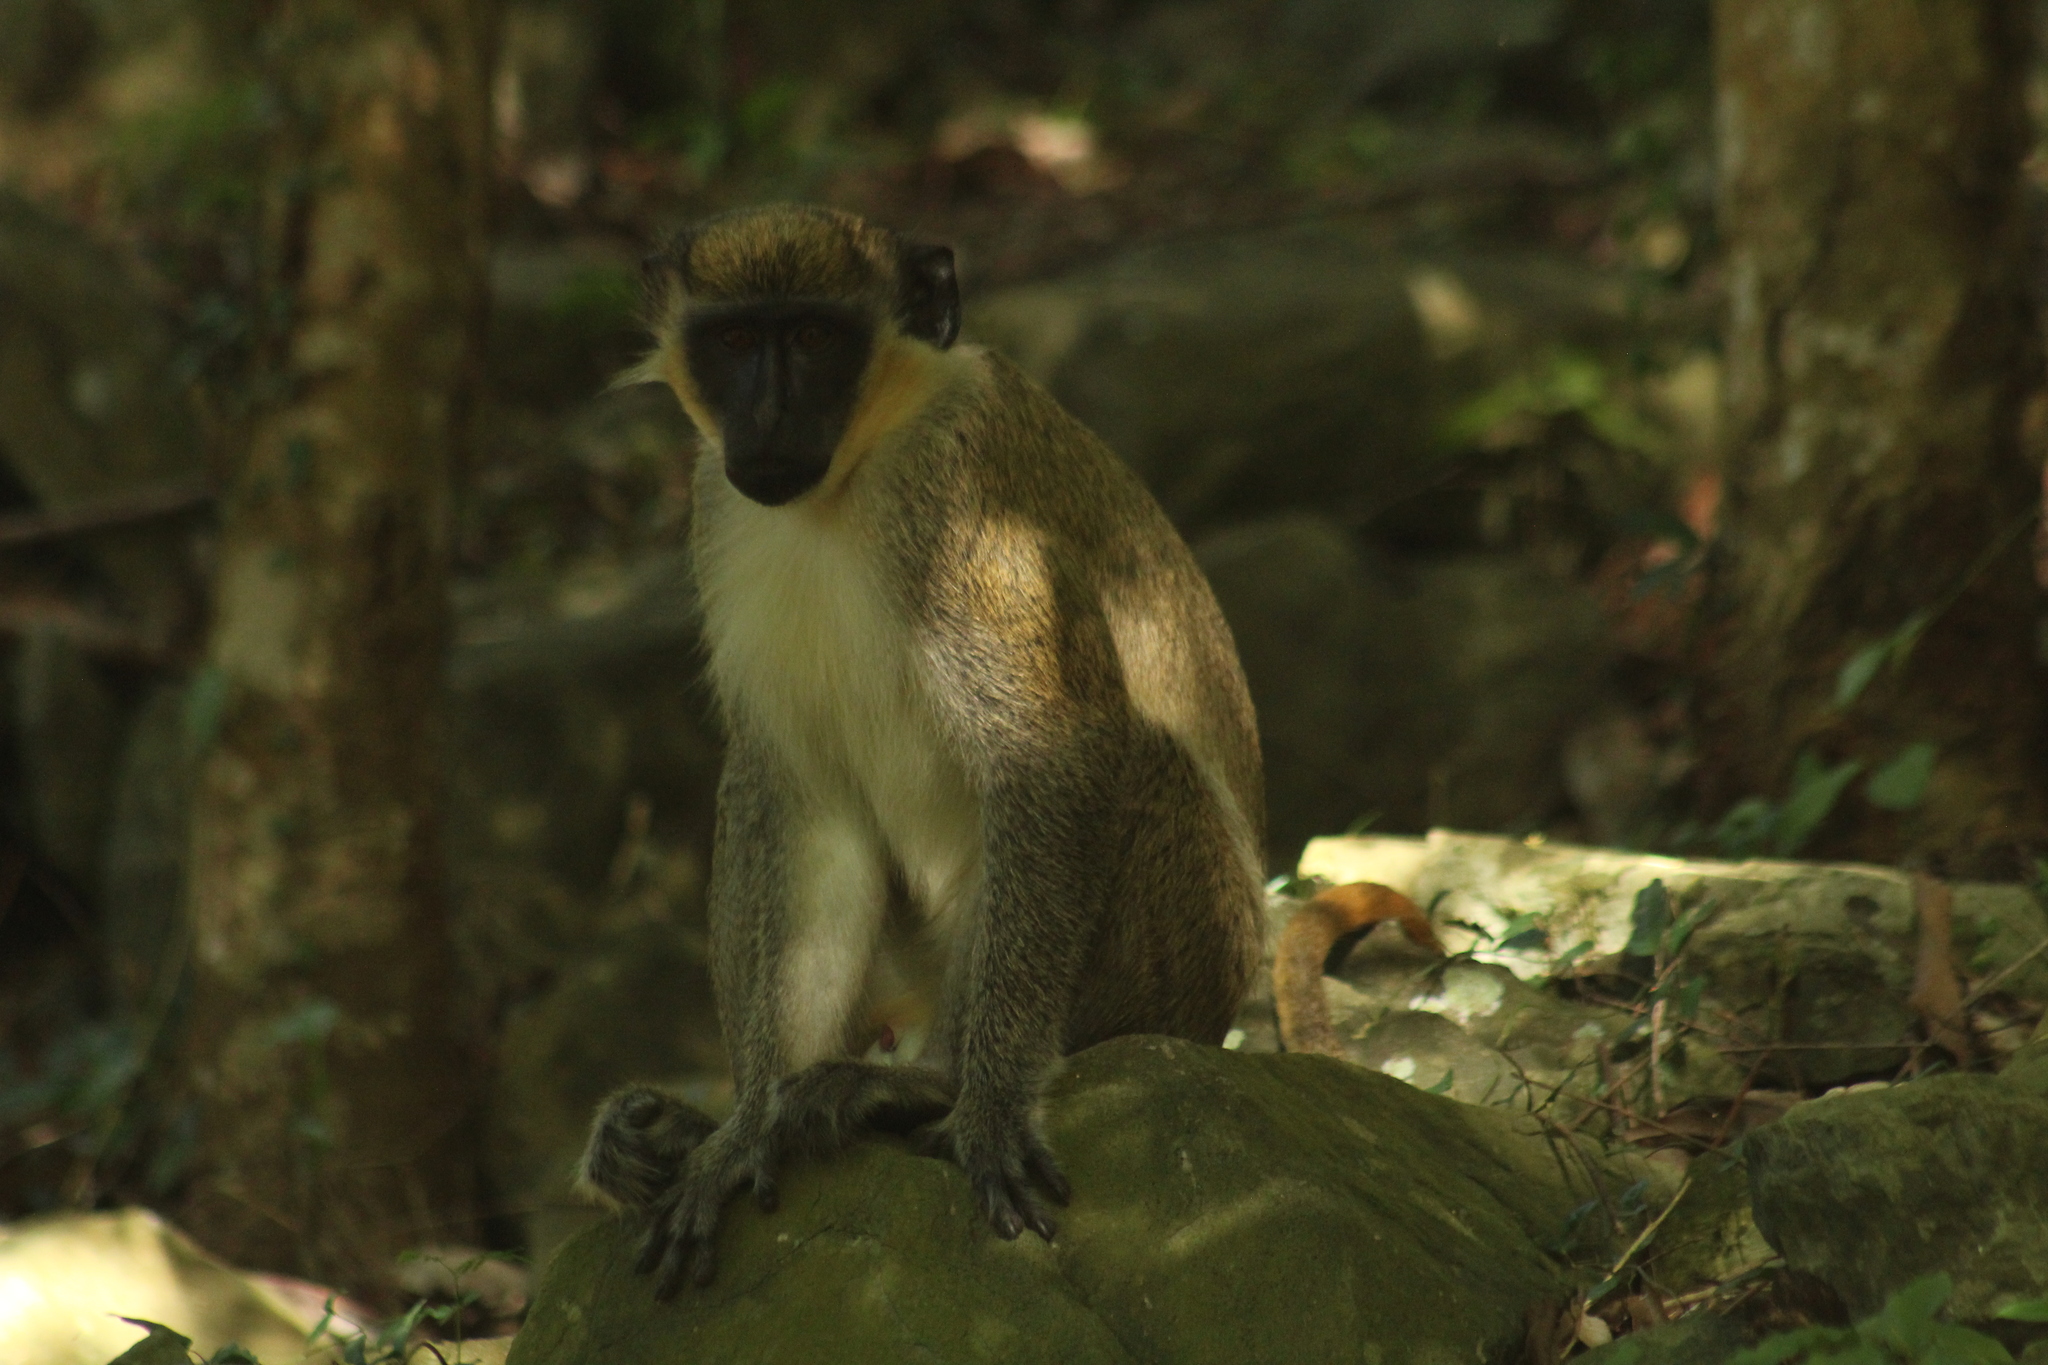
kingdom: Animalia
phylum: Chordata
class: Mammalia
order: Primates
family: Cercopithecidae
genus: Chlorocebus
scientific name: Chlorocebus sabaeus
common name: Green monkey
